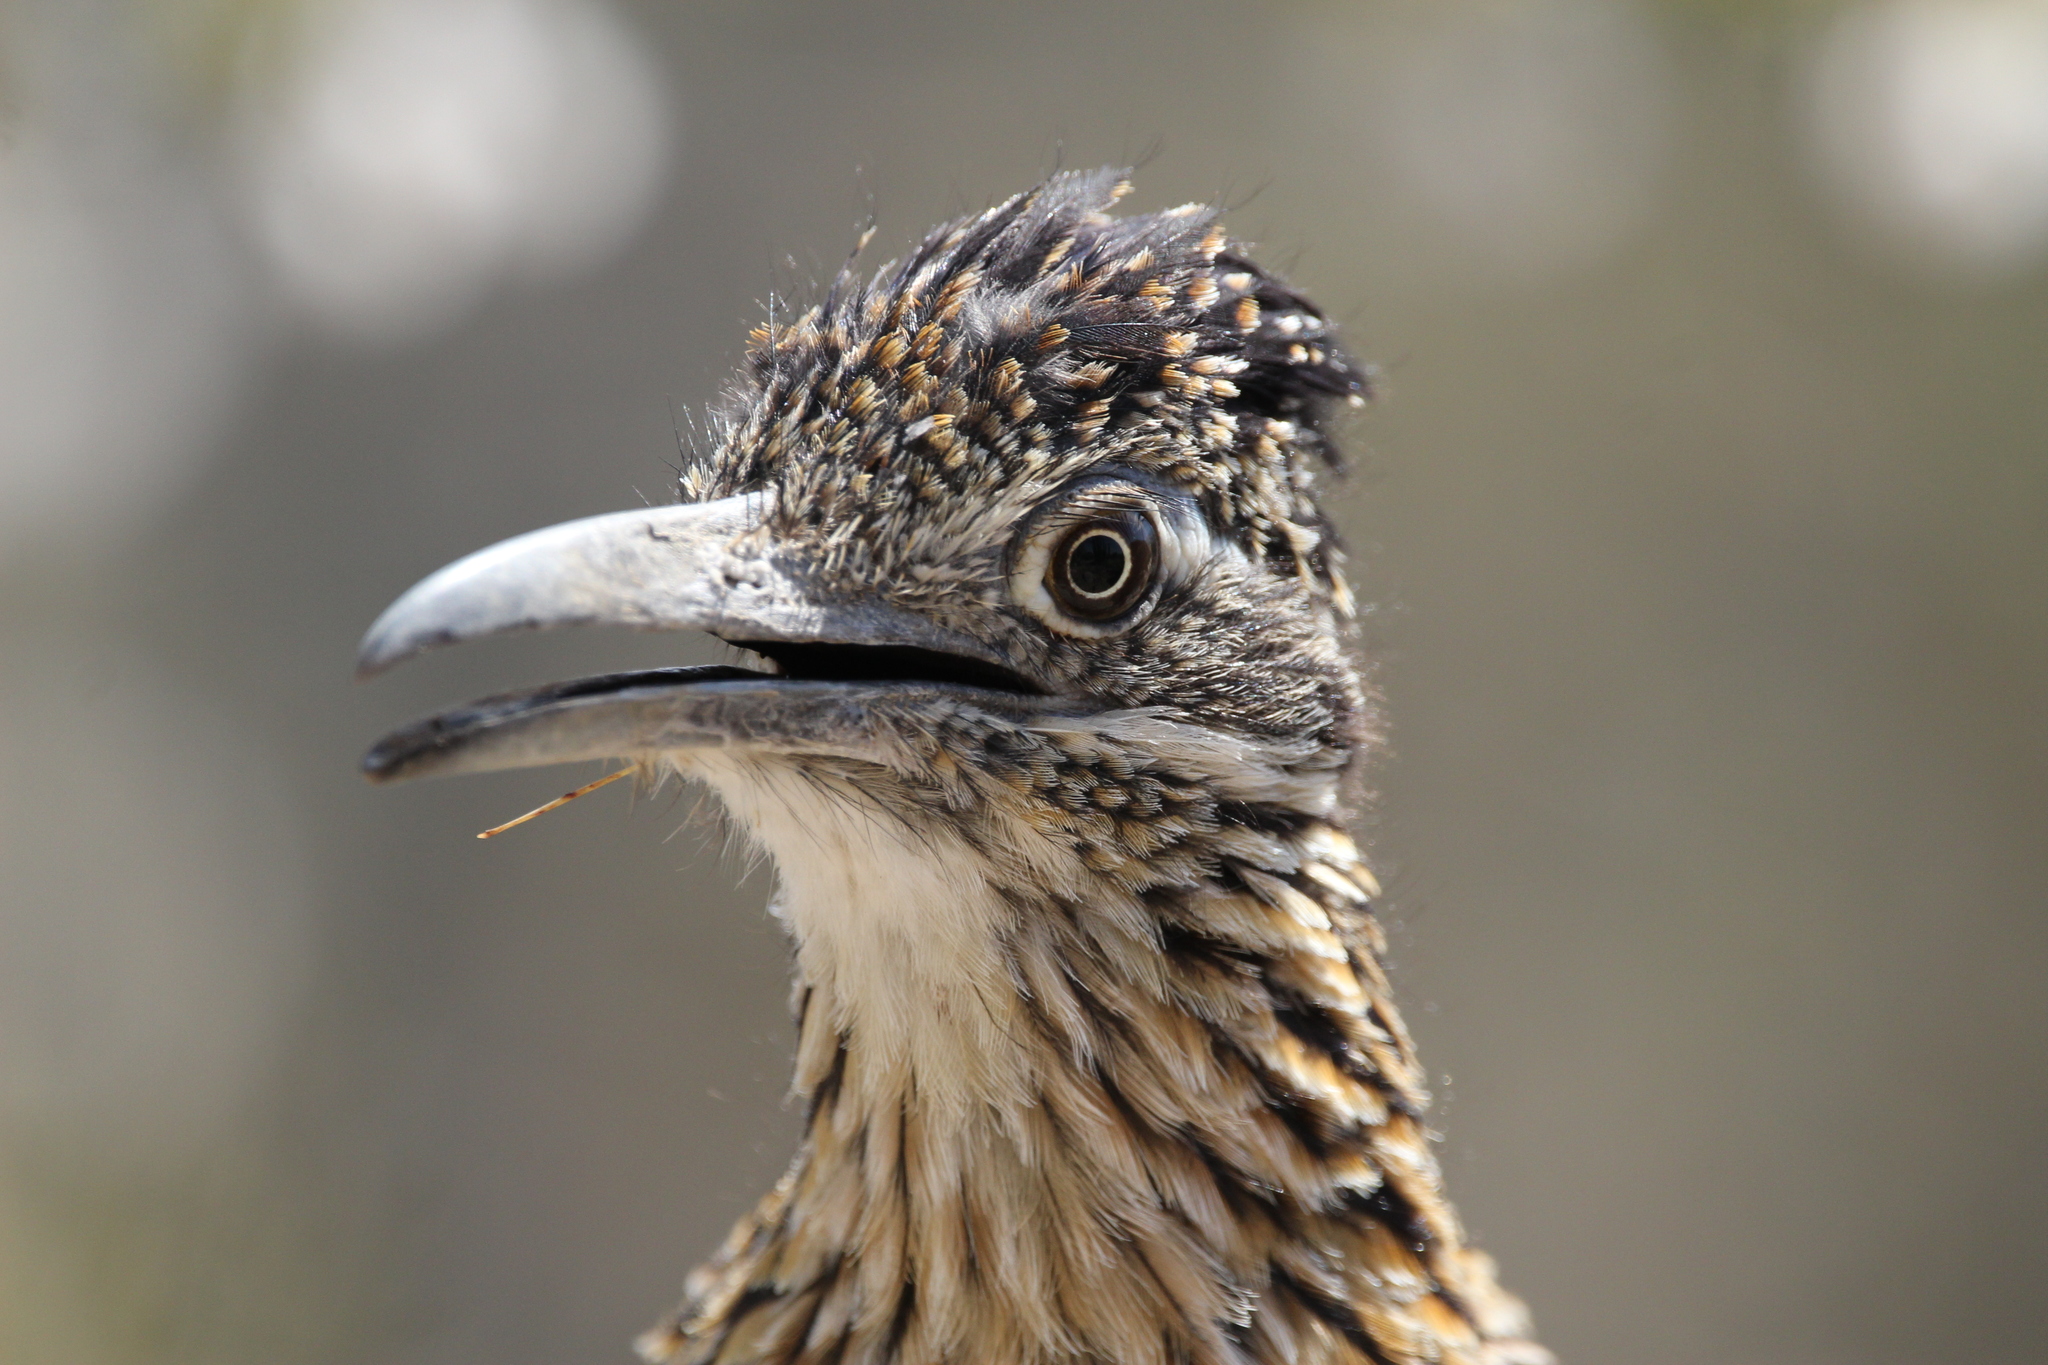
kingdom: Animalia
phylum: Chordata
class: Aves
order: Cuculiformes
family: Cuculidae
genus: Geococcyx
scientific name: Geococcyx californianus
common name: Greater roadrunner
